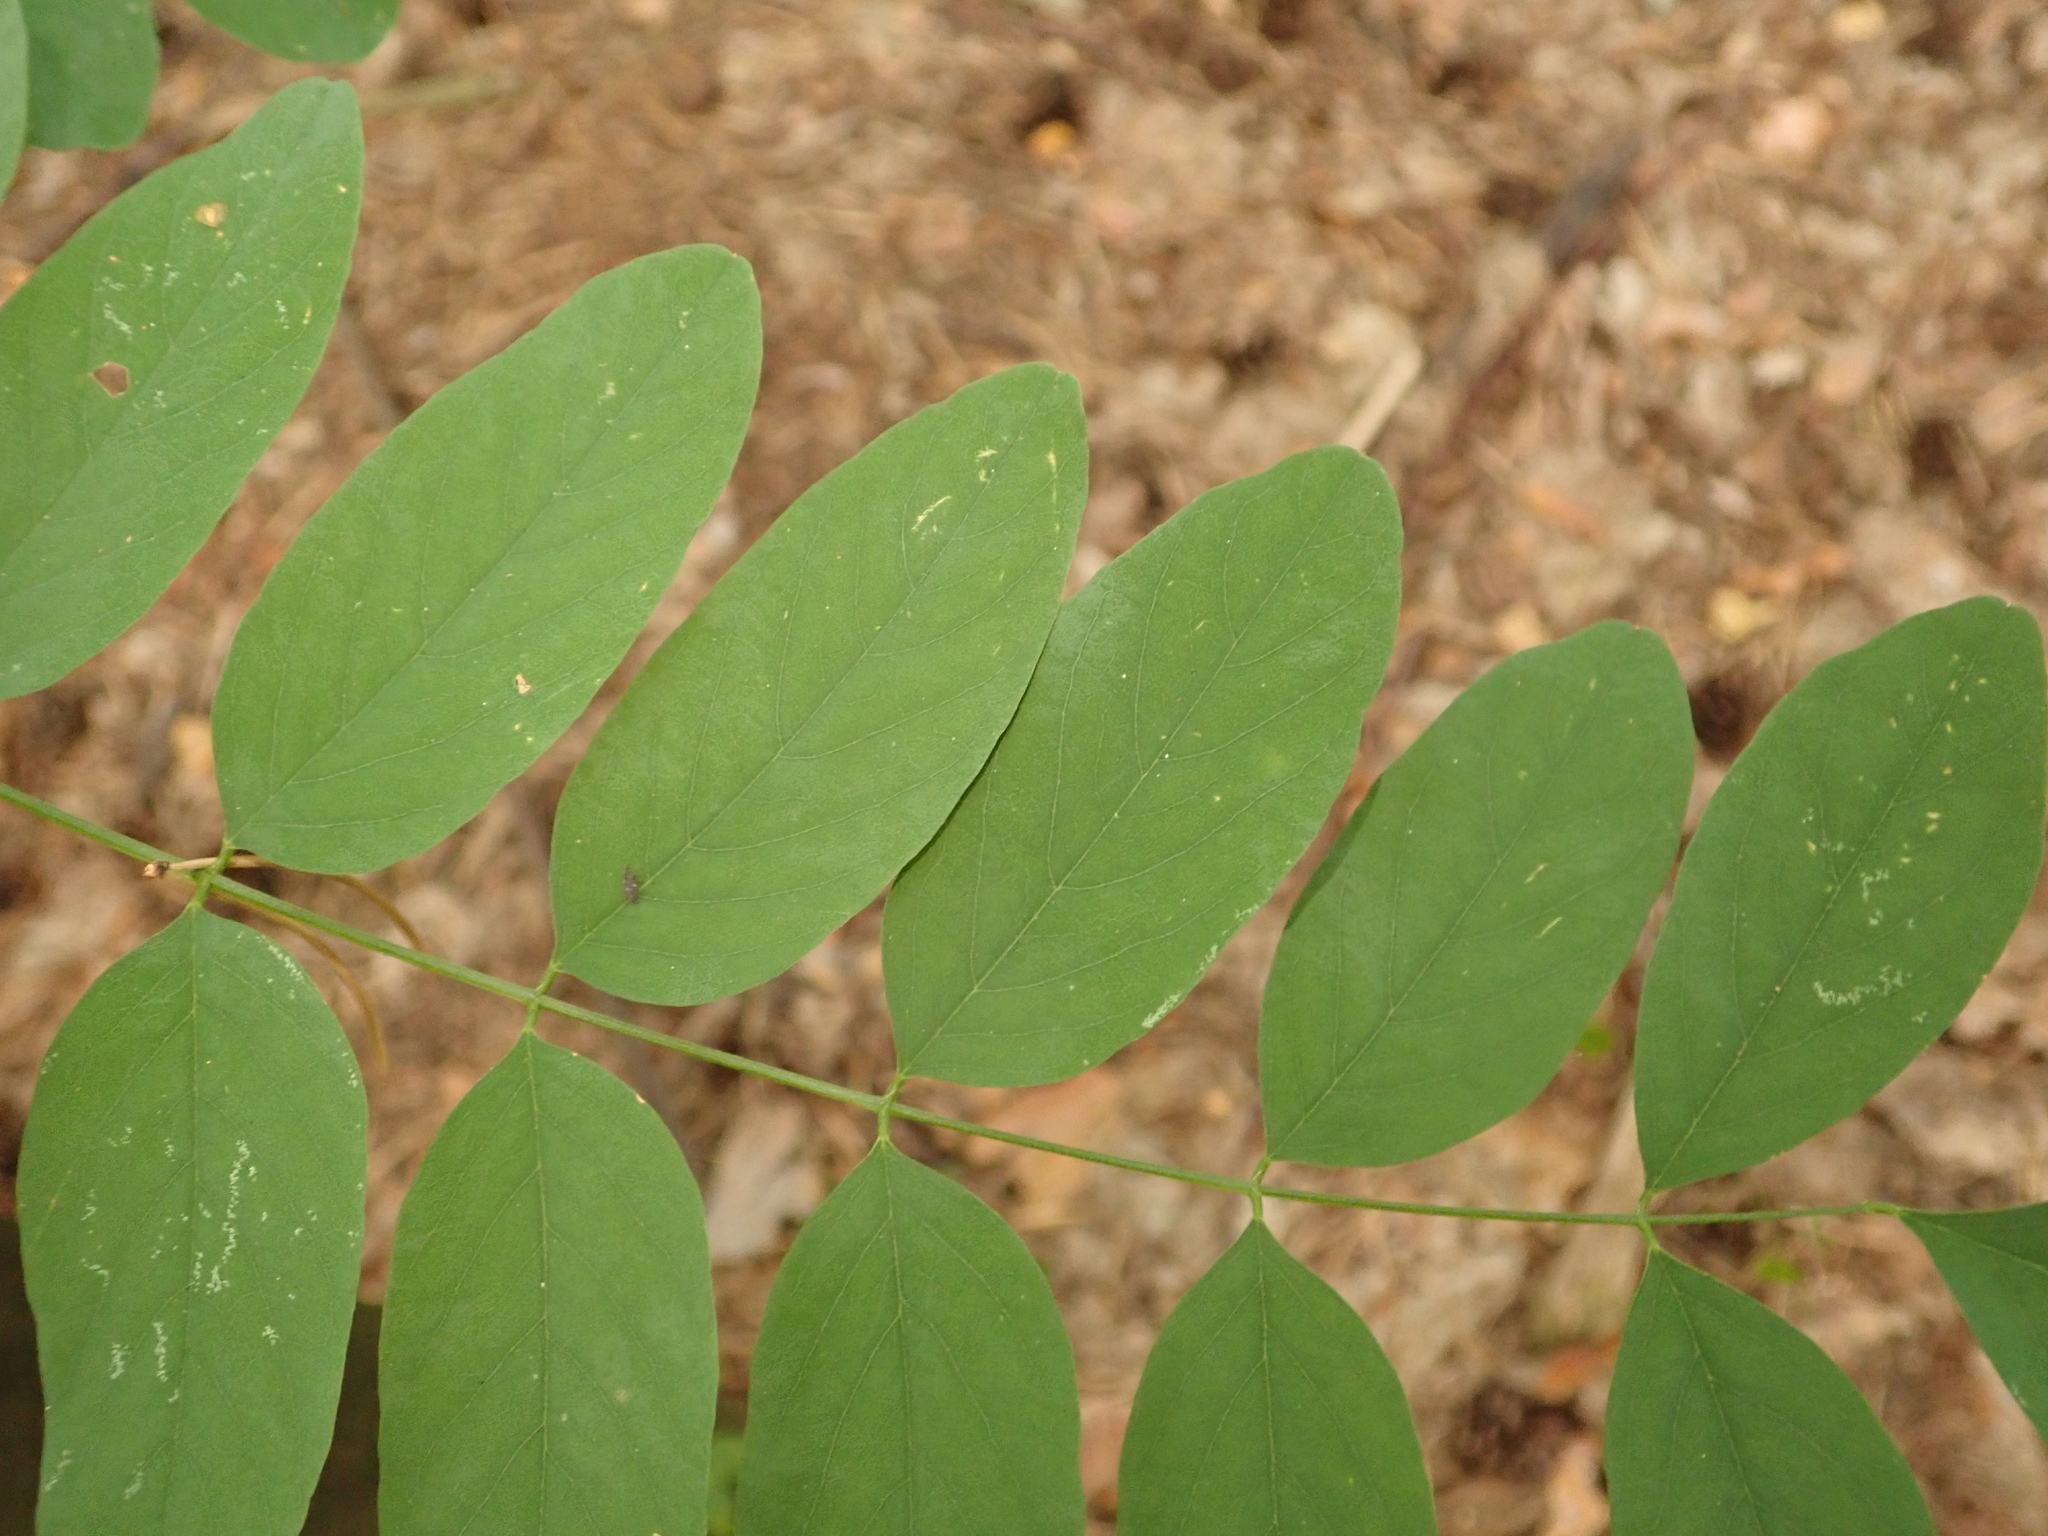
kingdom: Plantae
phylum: Tracheophyta
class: Magnoliopsida
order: Fabales
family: Fabaceae
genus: Robinia
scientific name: Robinia pseudoacacia
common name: Black locust
